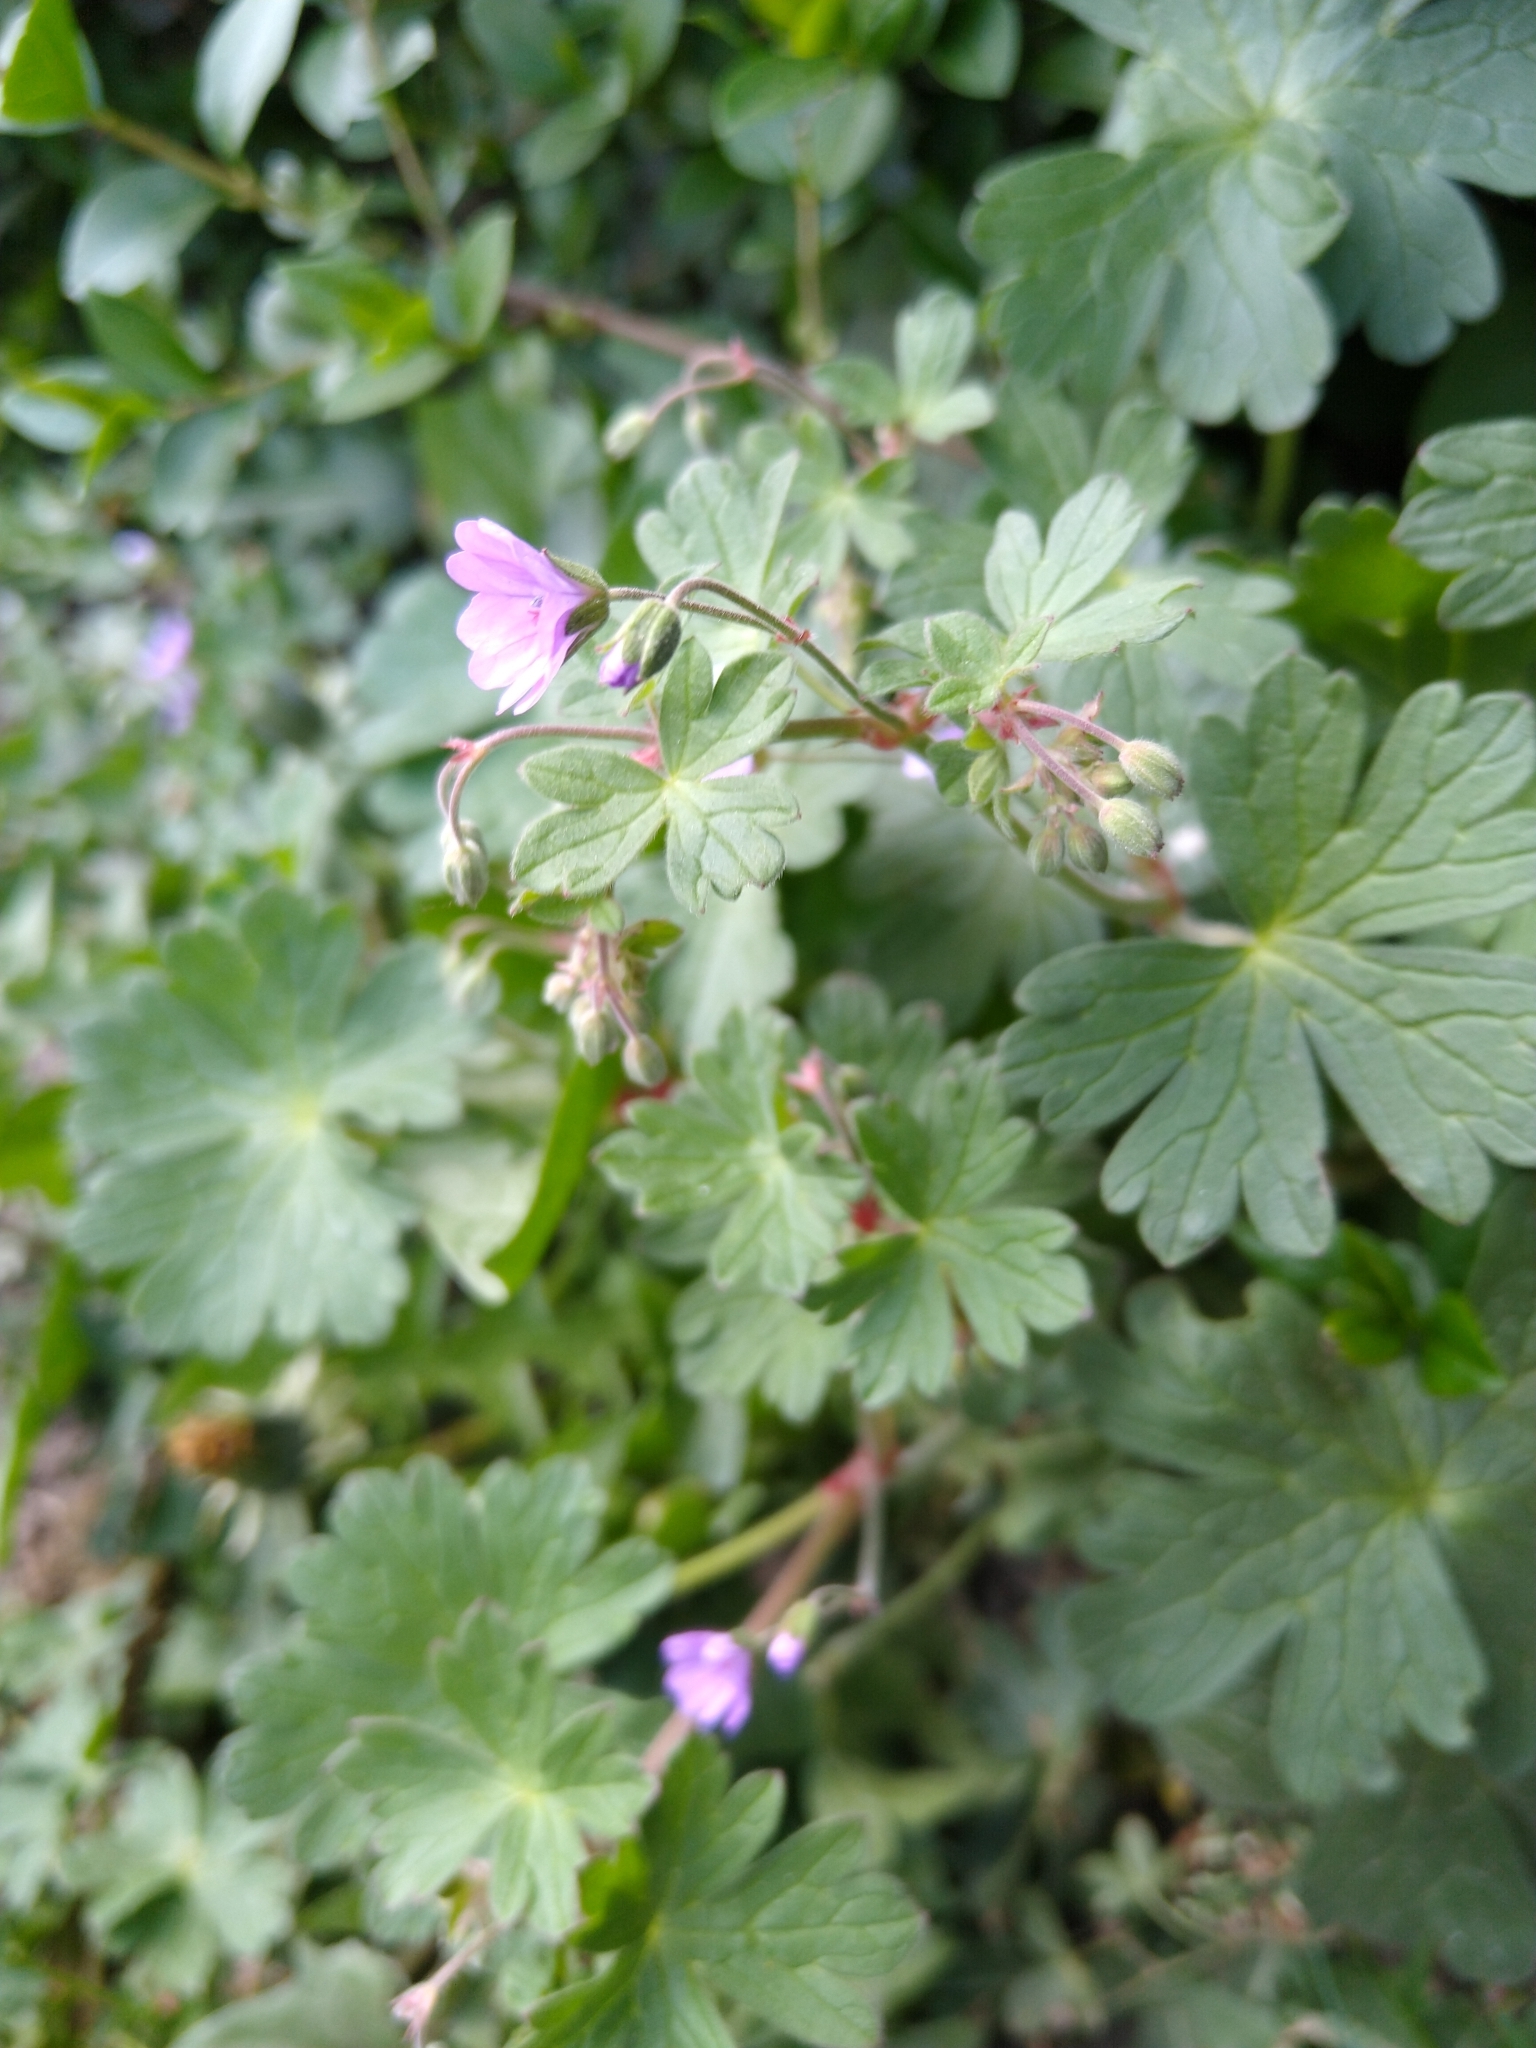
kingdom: Plantae
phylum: Tracheophyta
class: Magnoliopsida
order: Geraniales
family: Geraniaceae
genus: Geranium
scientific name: Geranium pyrenaicum
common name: Hedgerow crane's-bill
